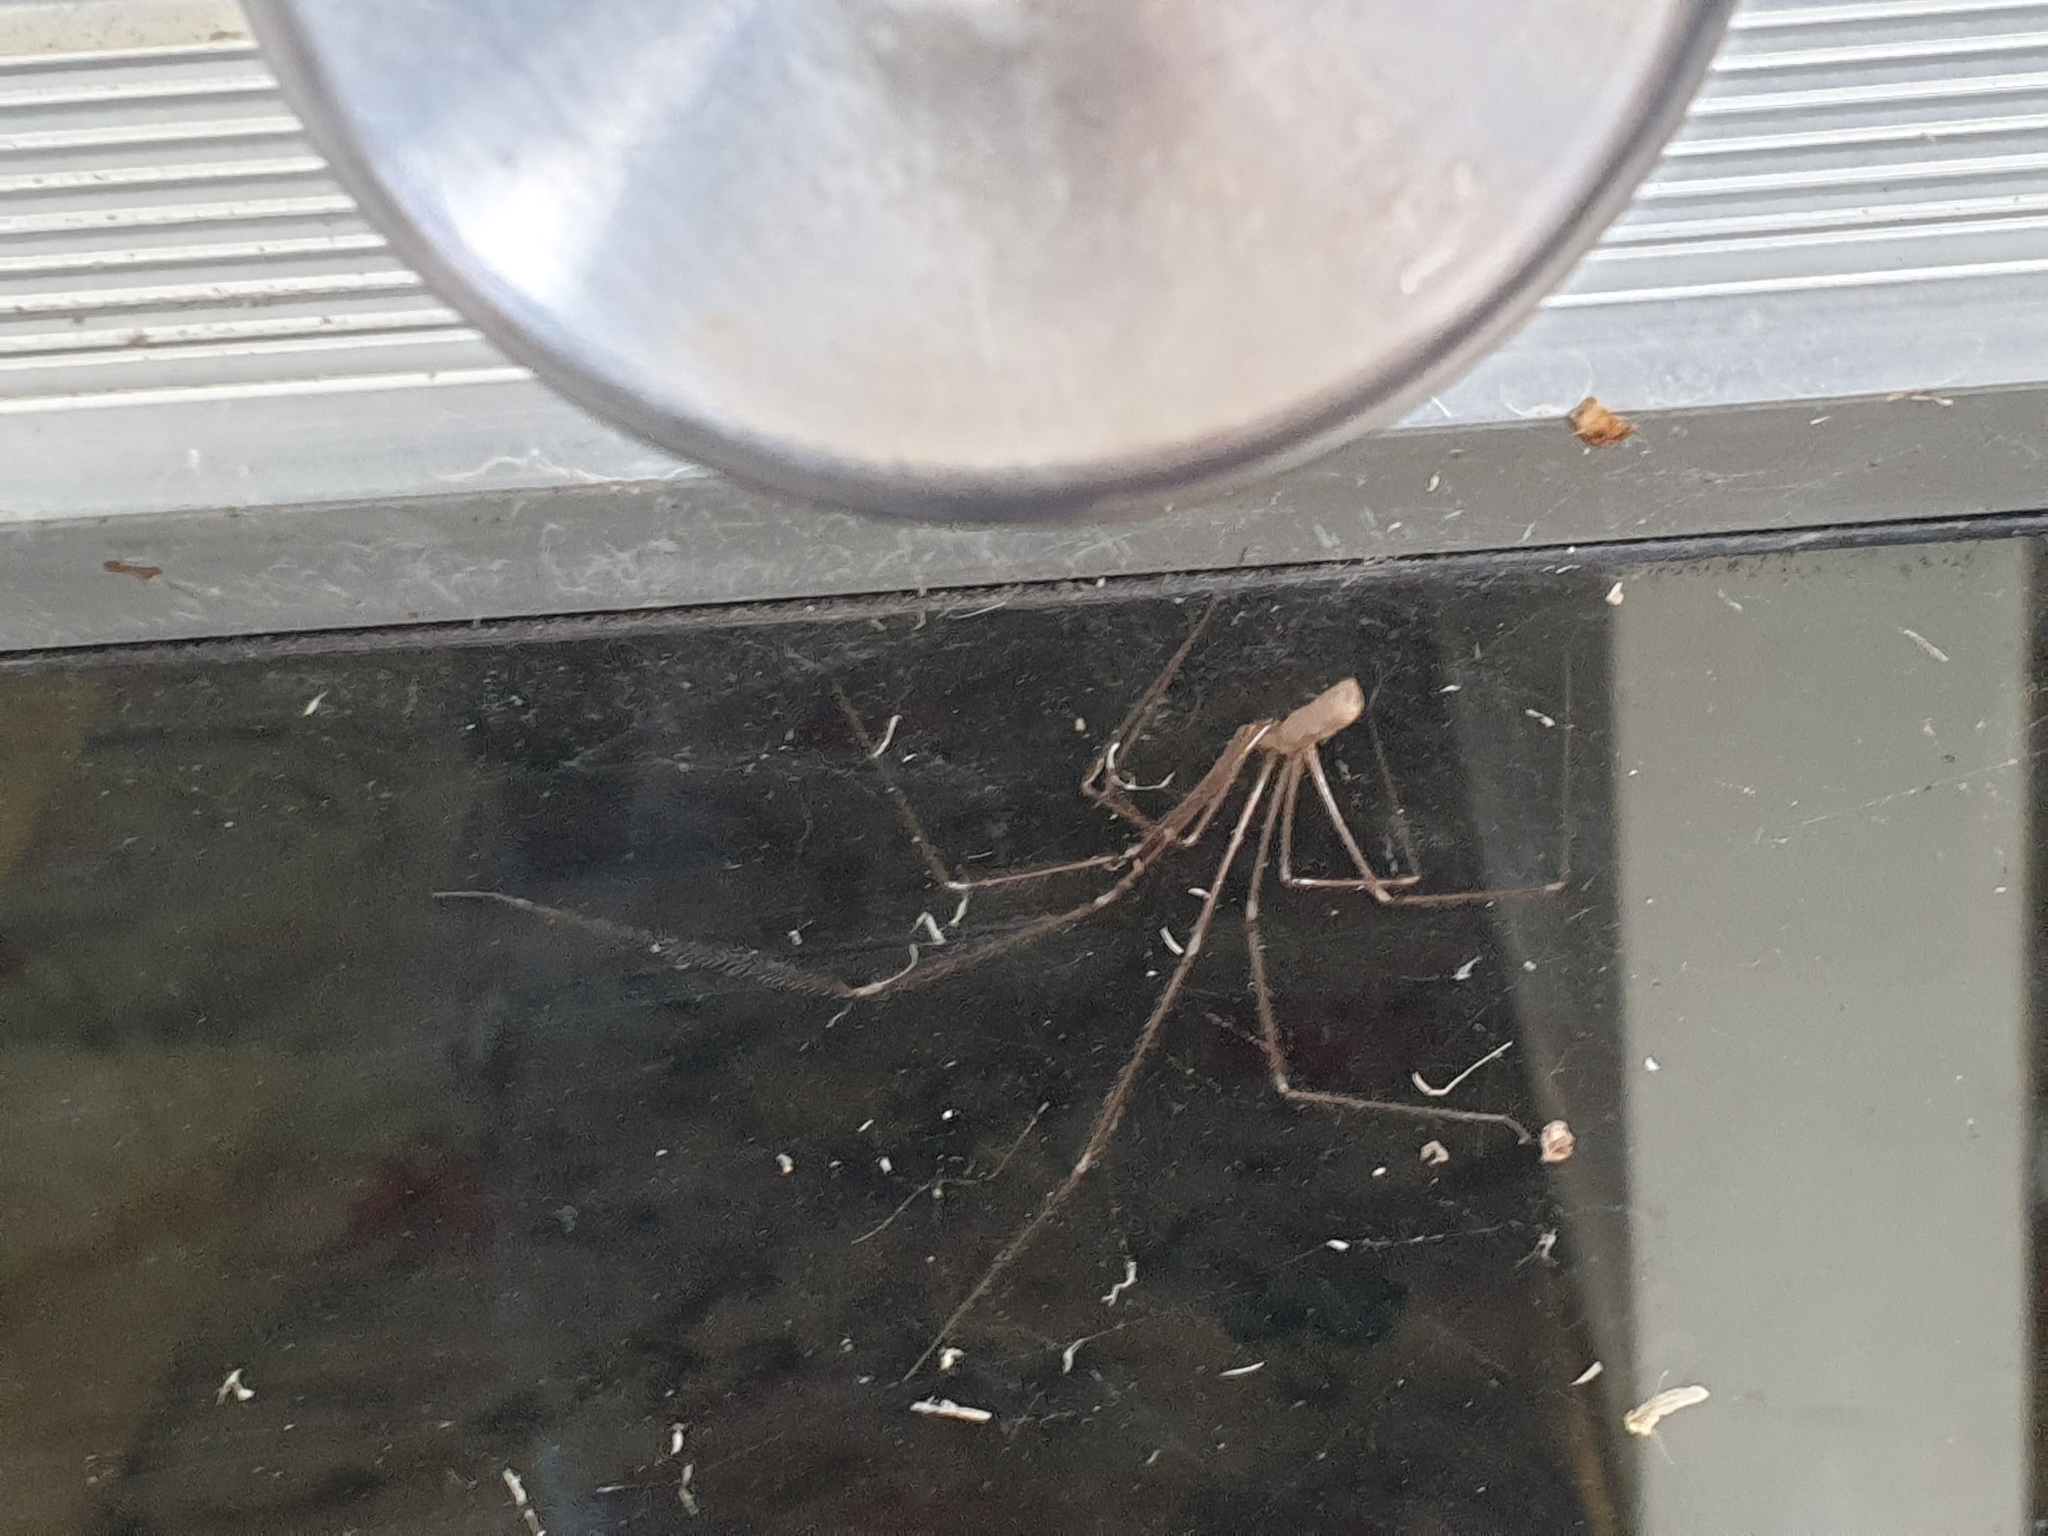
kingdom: Animalia
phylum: Arthropoda
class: Arachnida
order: Araneae
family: Pholcidae
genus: Pholcus
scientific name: Pholcus phalangioides
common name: Longbodied cellar spider
